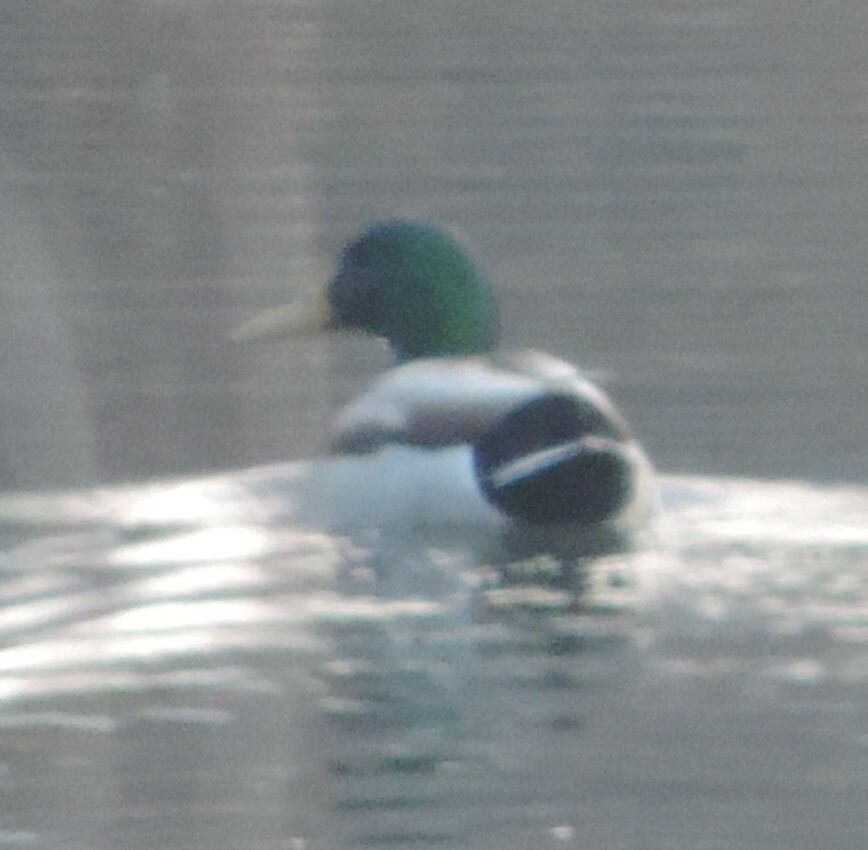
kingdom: Animalia
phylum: Chordata
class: Aves
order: Anseriformes
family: Anatidae
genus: Anas
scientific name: Anas platyrhynchos
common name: Mallard
